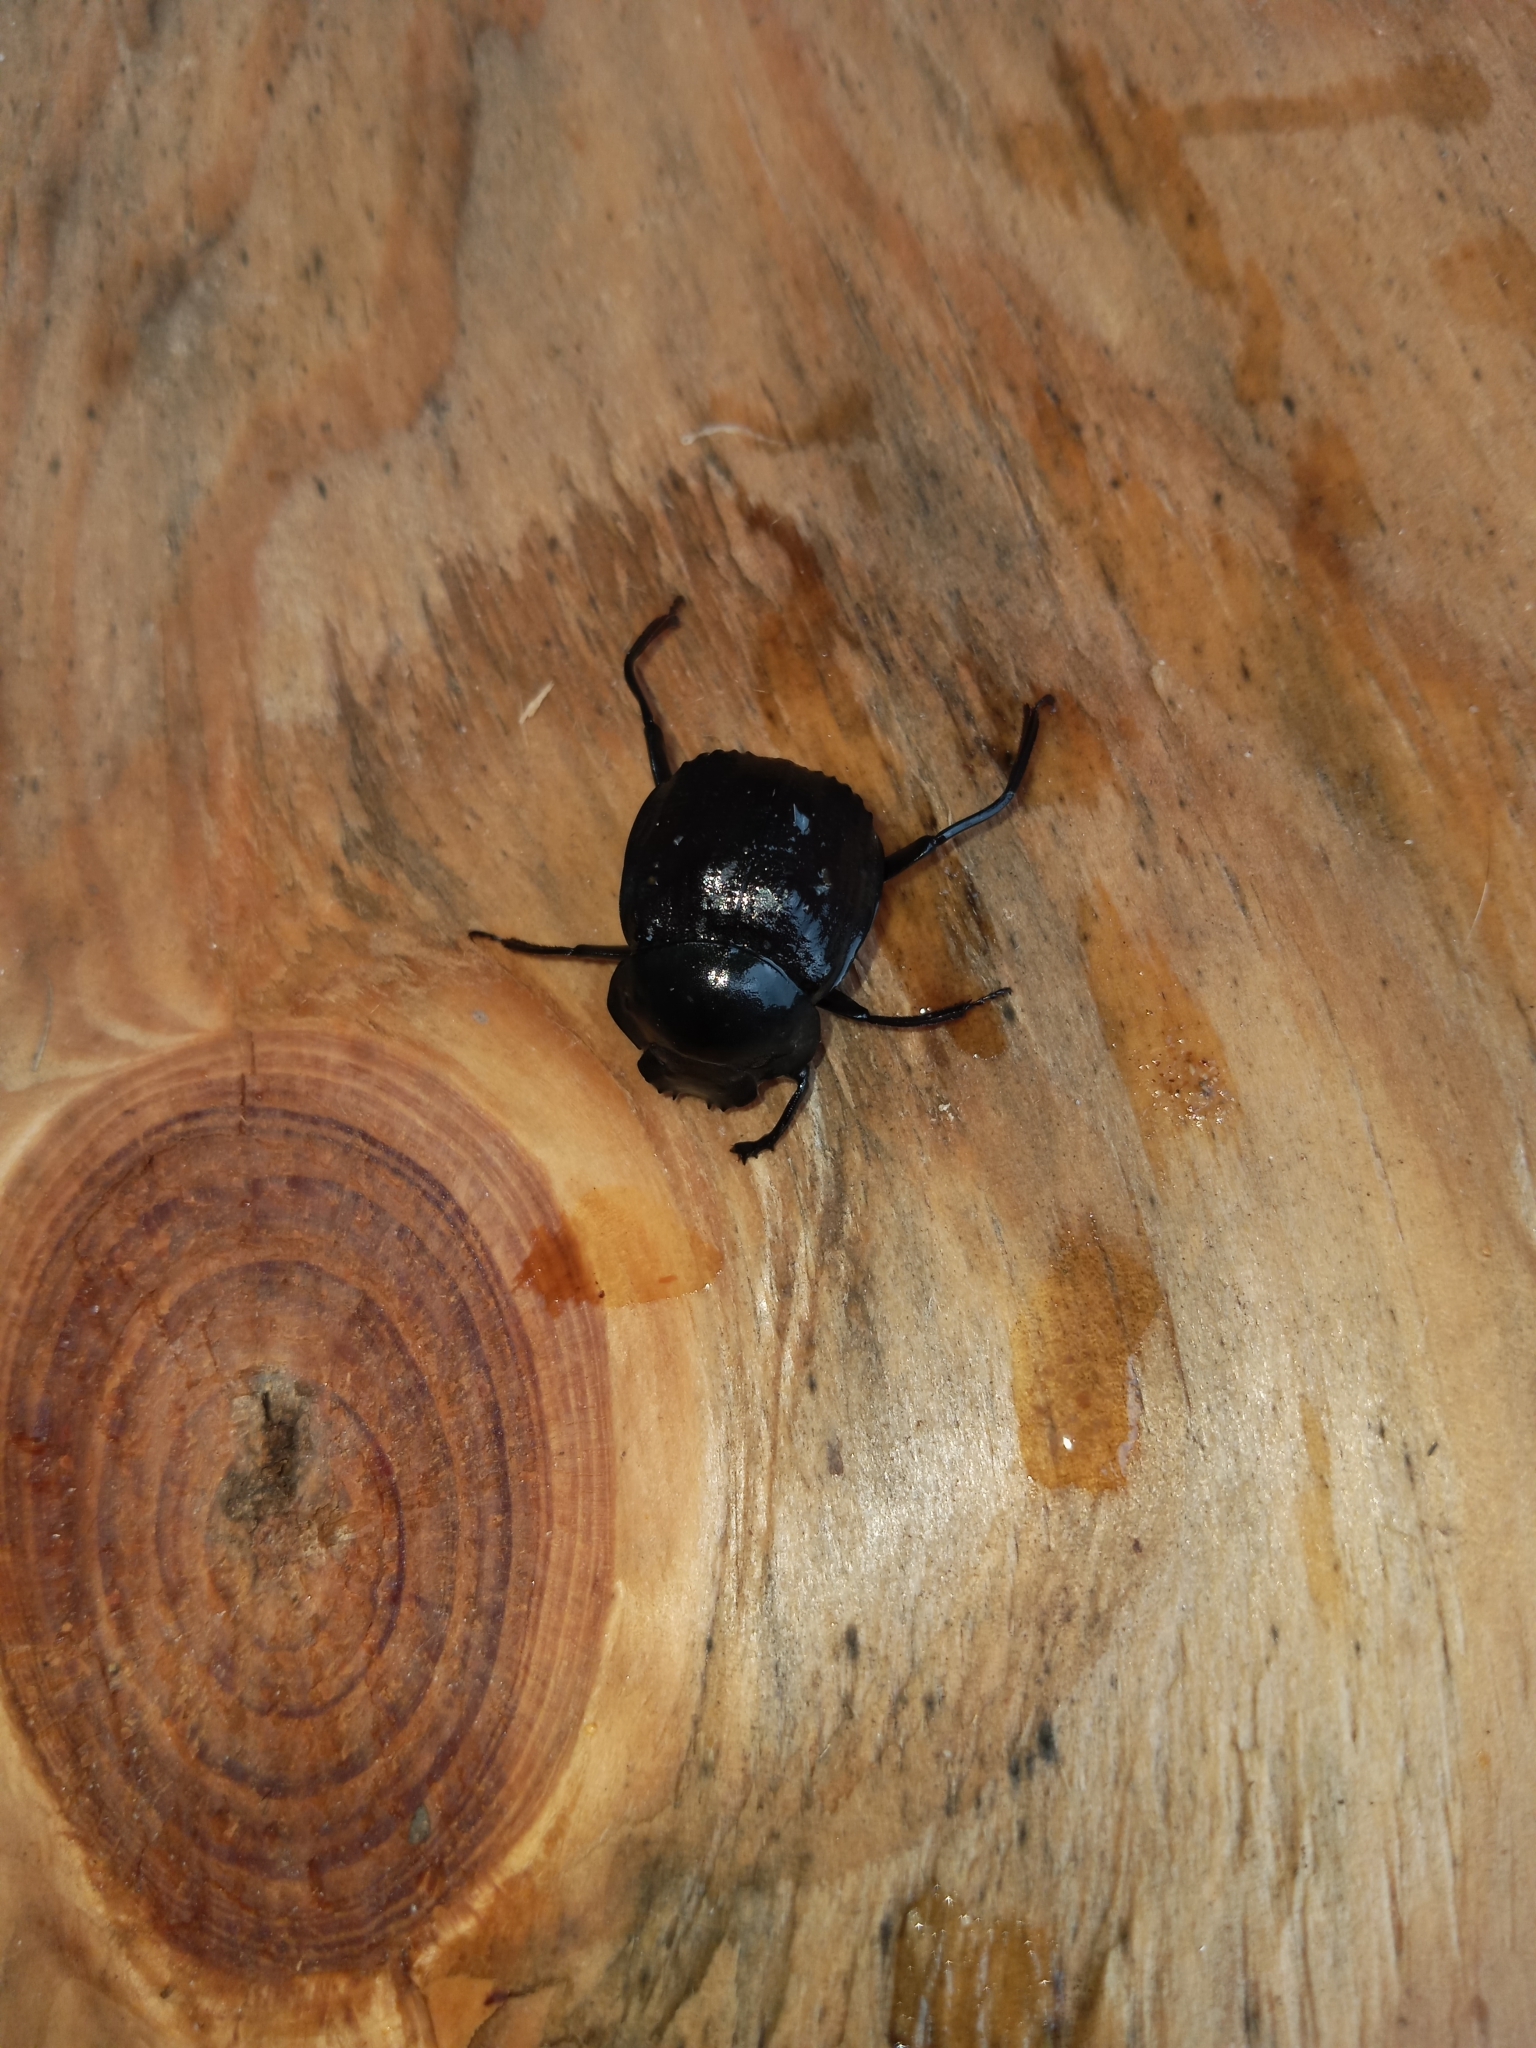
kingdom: Animalia
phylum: Arthropoda
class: Insecta
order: Coleoptera
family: Scarabaeidae
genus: Deltochilum
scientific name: Deltochilum gibbosum
